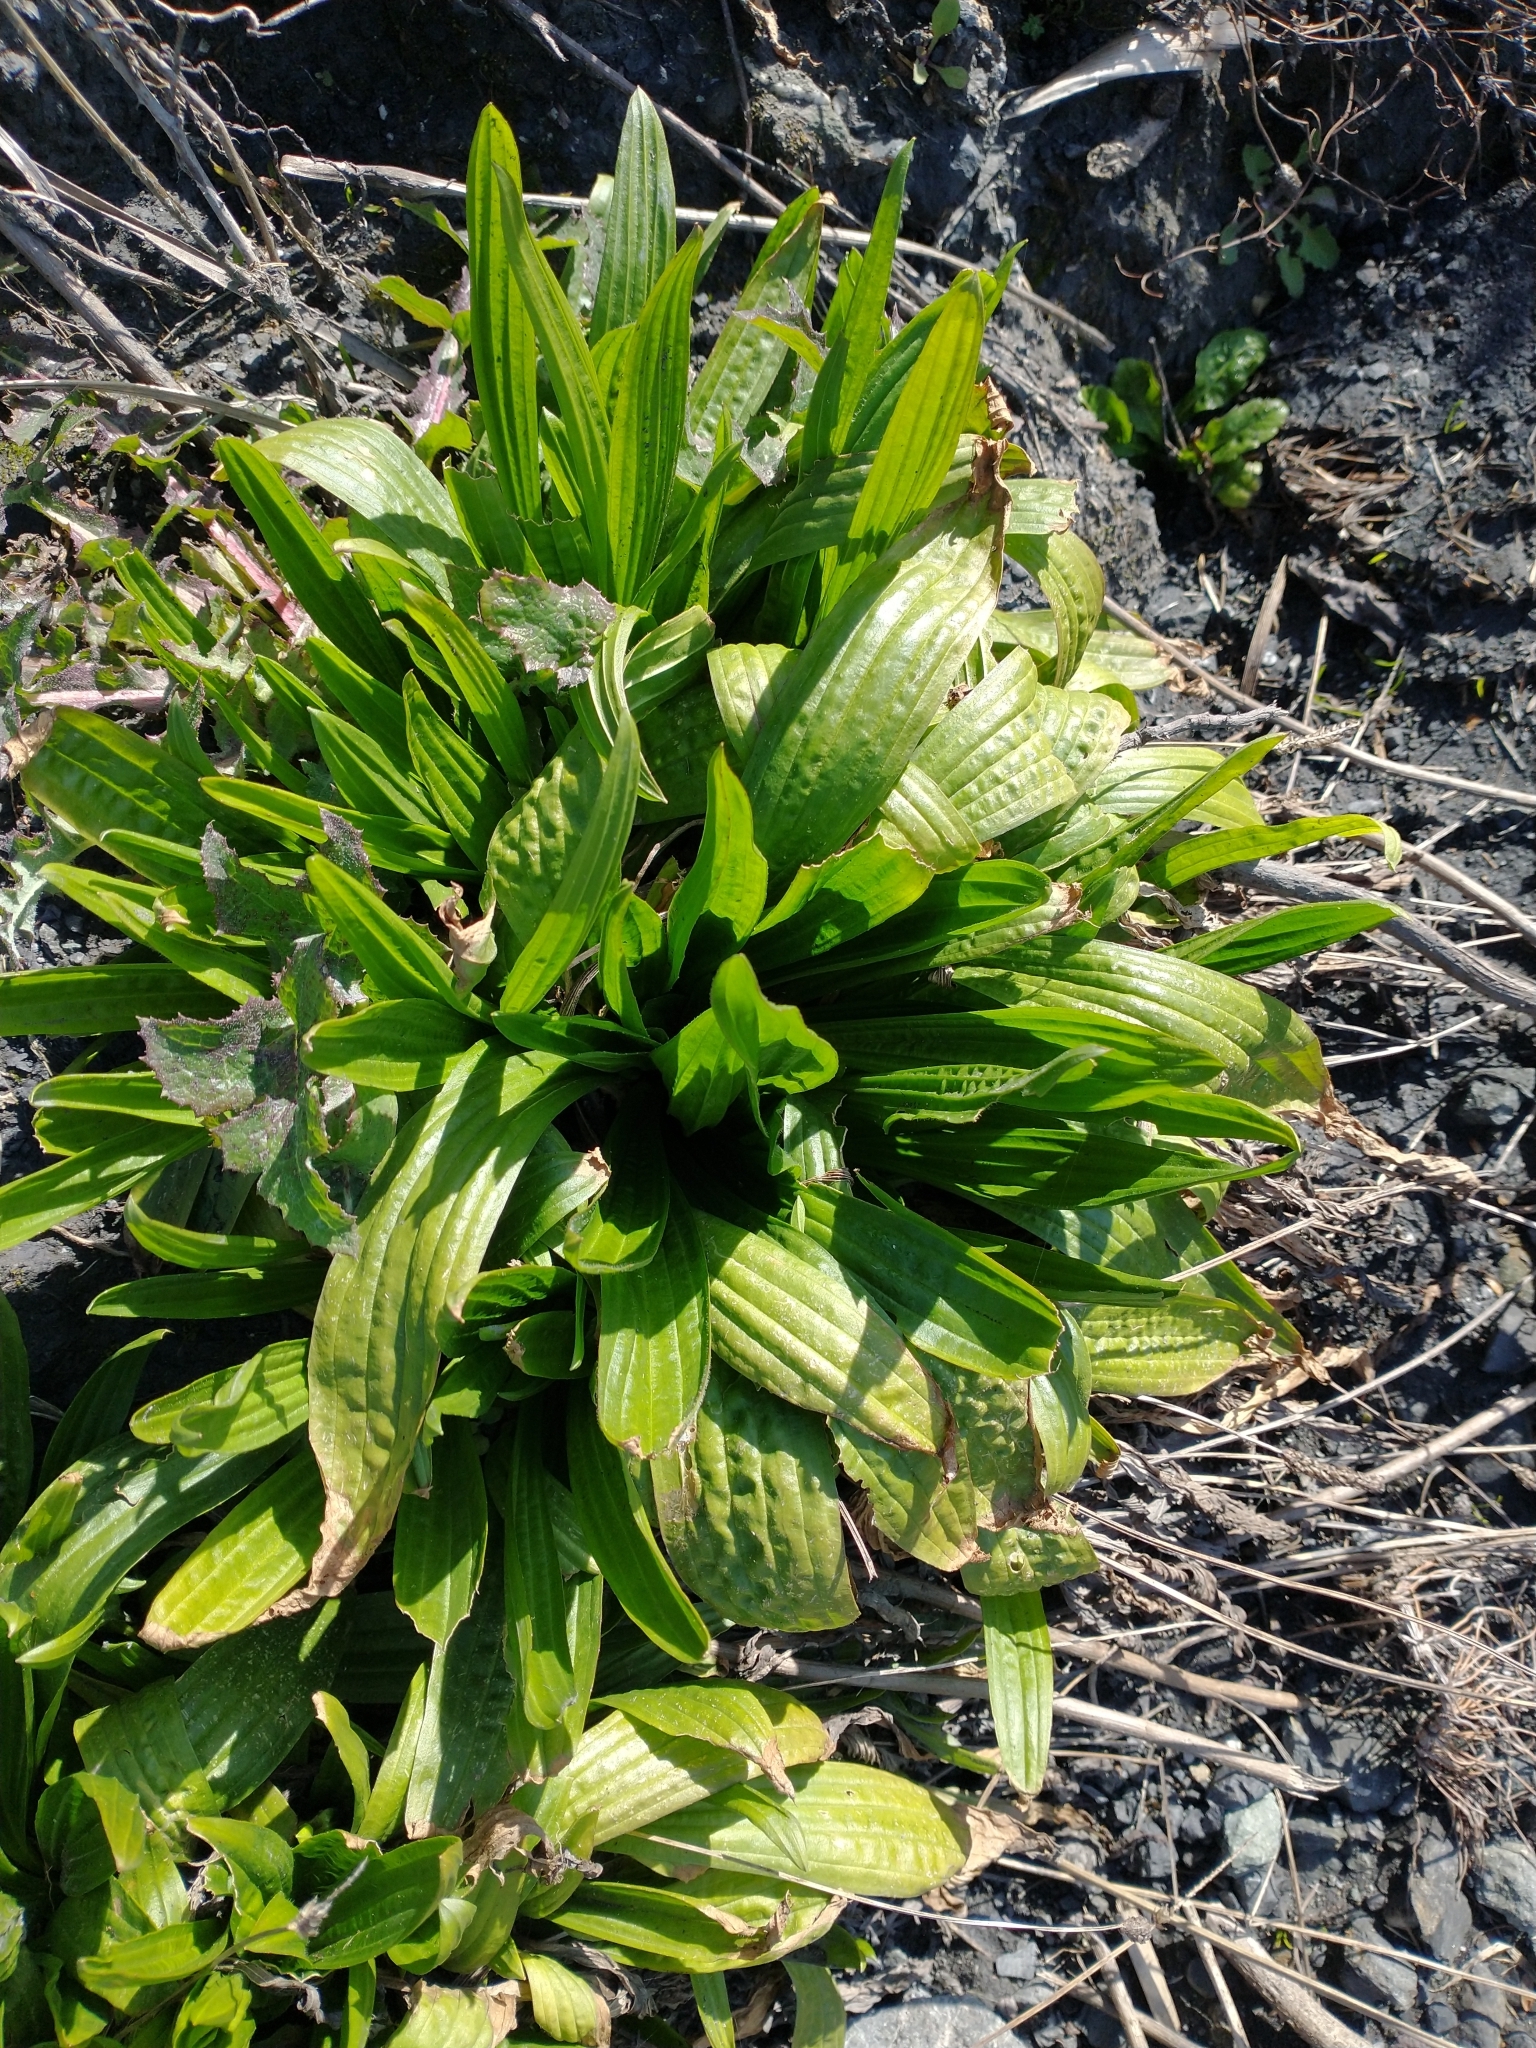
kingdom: Plantae
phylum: Tracheophyta
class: Magnoliopsida
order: Lamiales
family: Plantaginaceae
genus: Plantago
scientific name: Plantago subnuda
